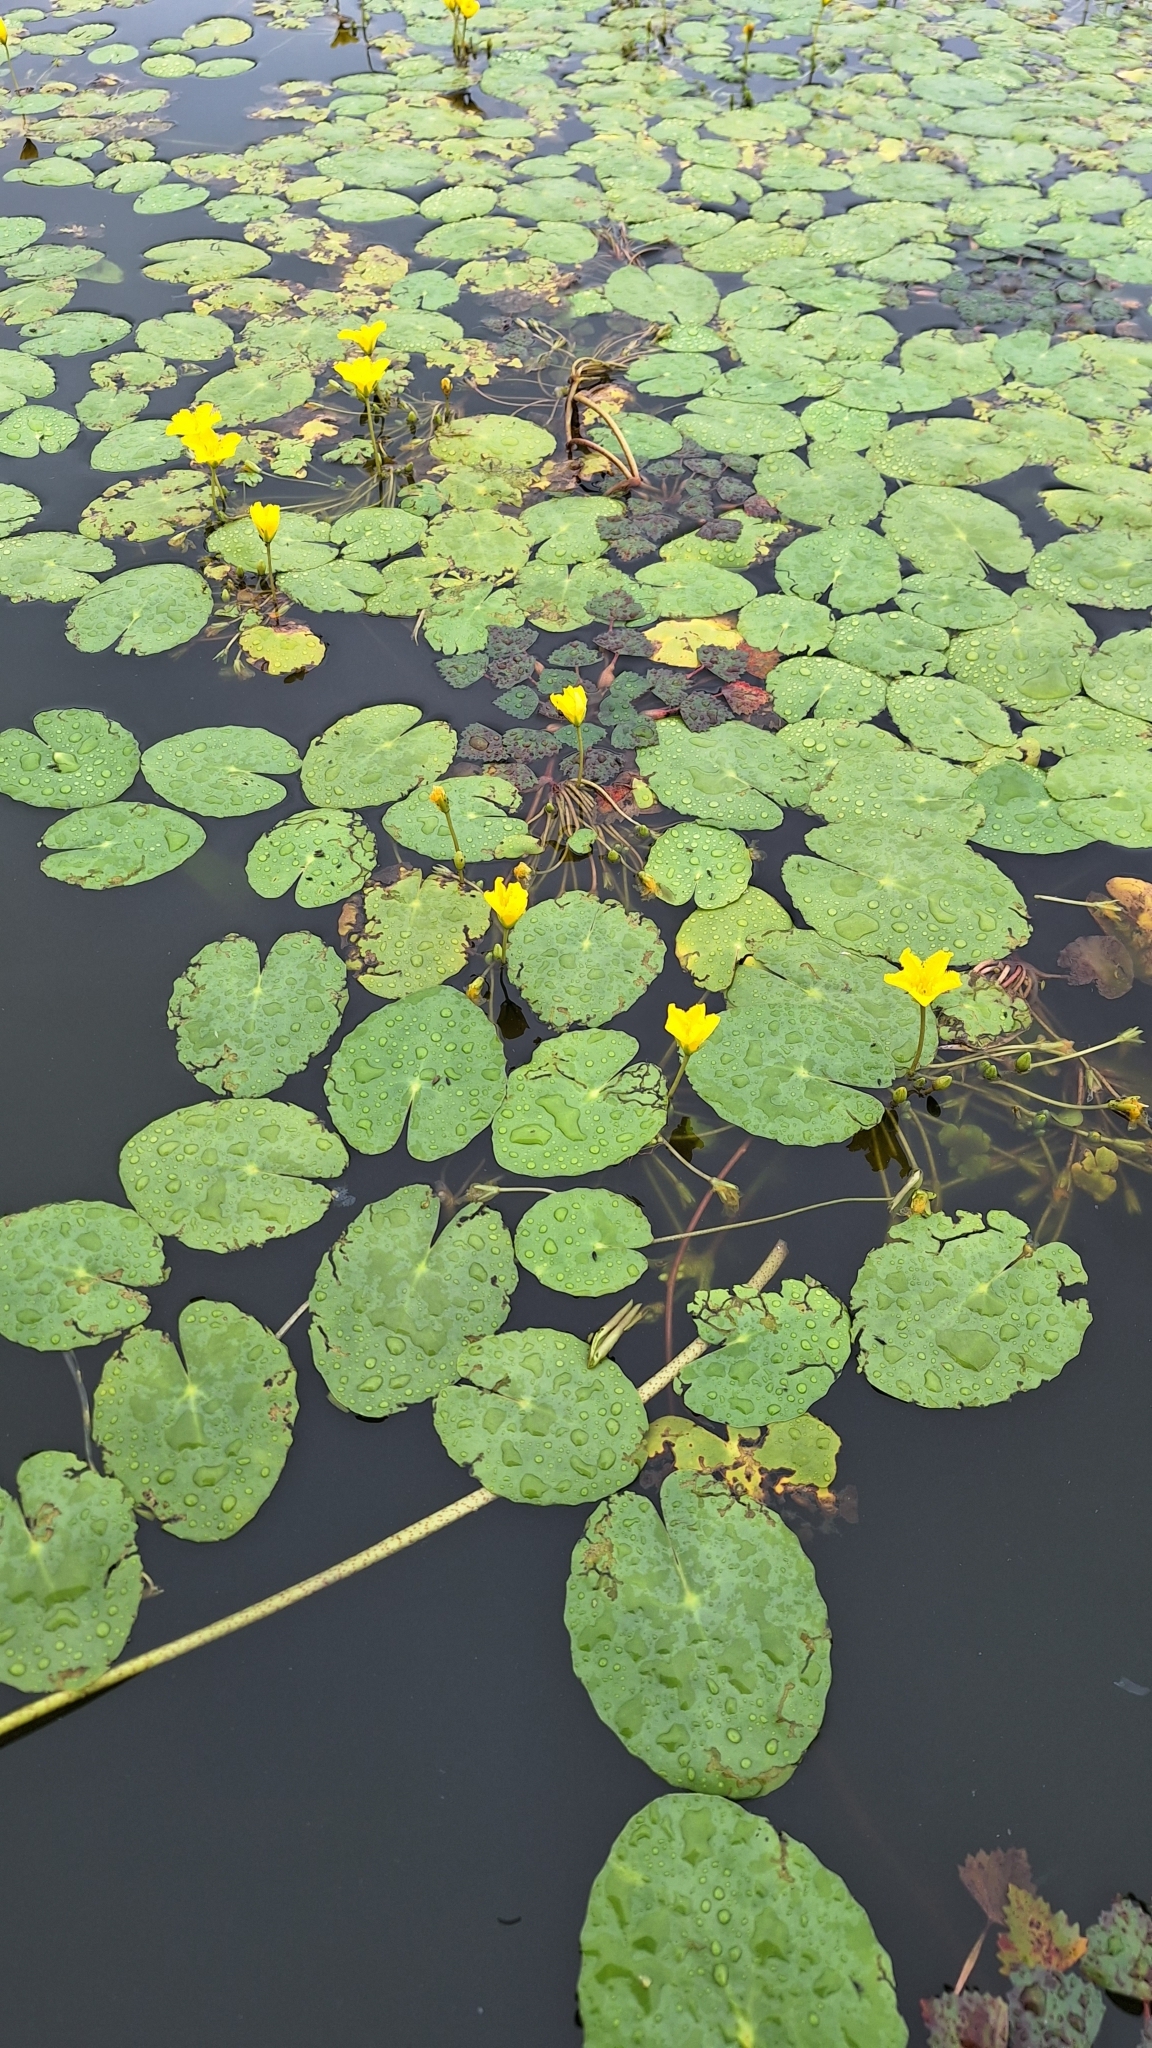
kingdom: Plantae
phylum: Tracheophyta
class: Magnoliopsida
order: Asterales
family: Menyanthaceae
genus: Nymphoides
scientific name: Nymphoides peltata
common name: Fringed water-lily
